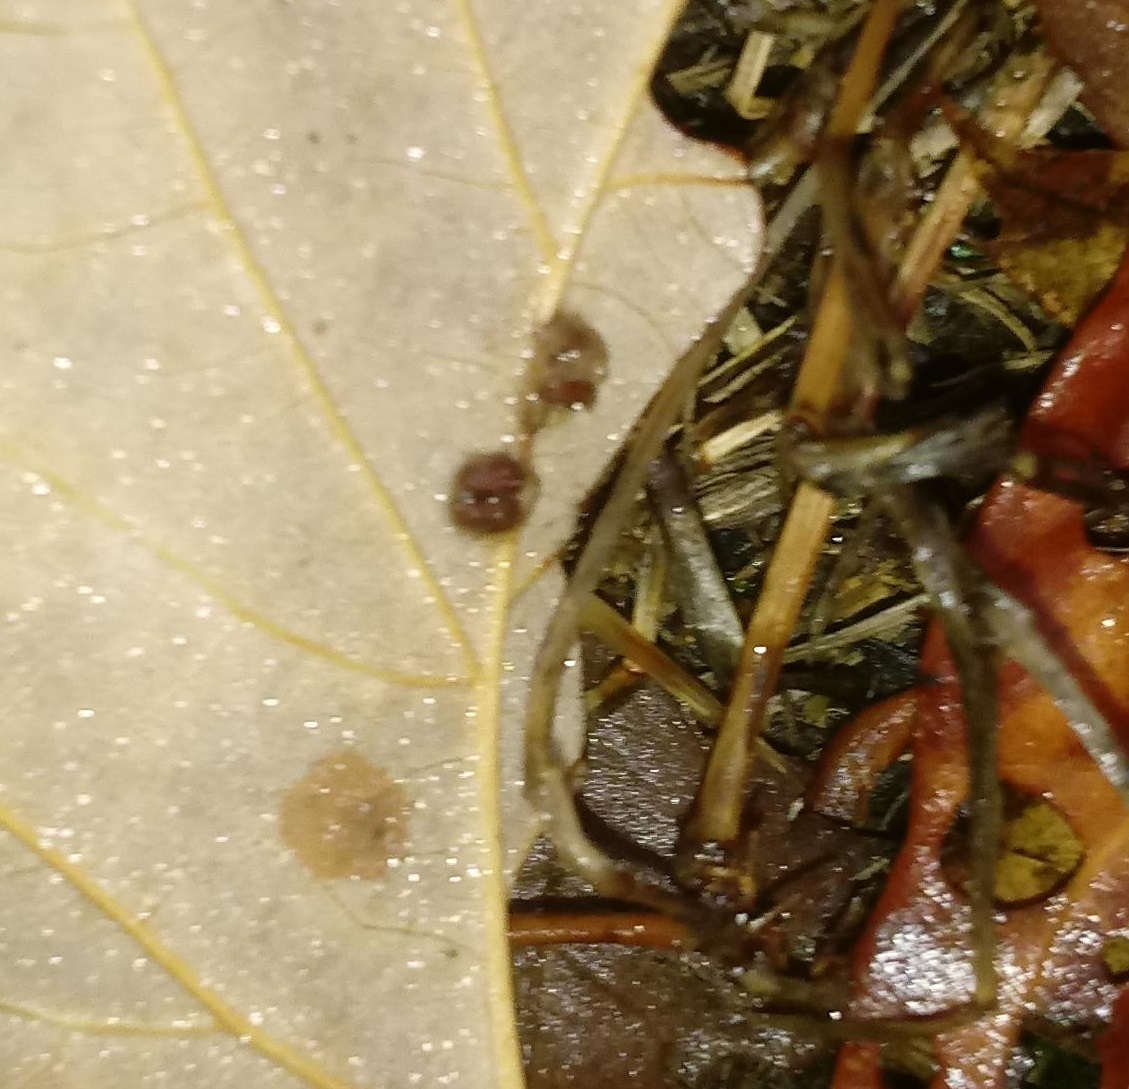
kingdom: Animalia
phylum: Arthropoda
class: Insecta
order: Hymenoptera
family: Cynipidae
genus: Andricus
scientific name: Andricus Druon ignotum
